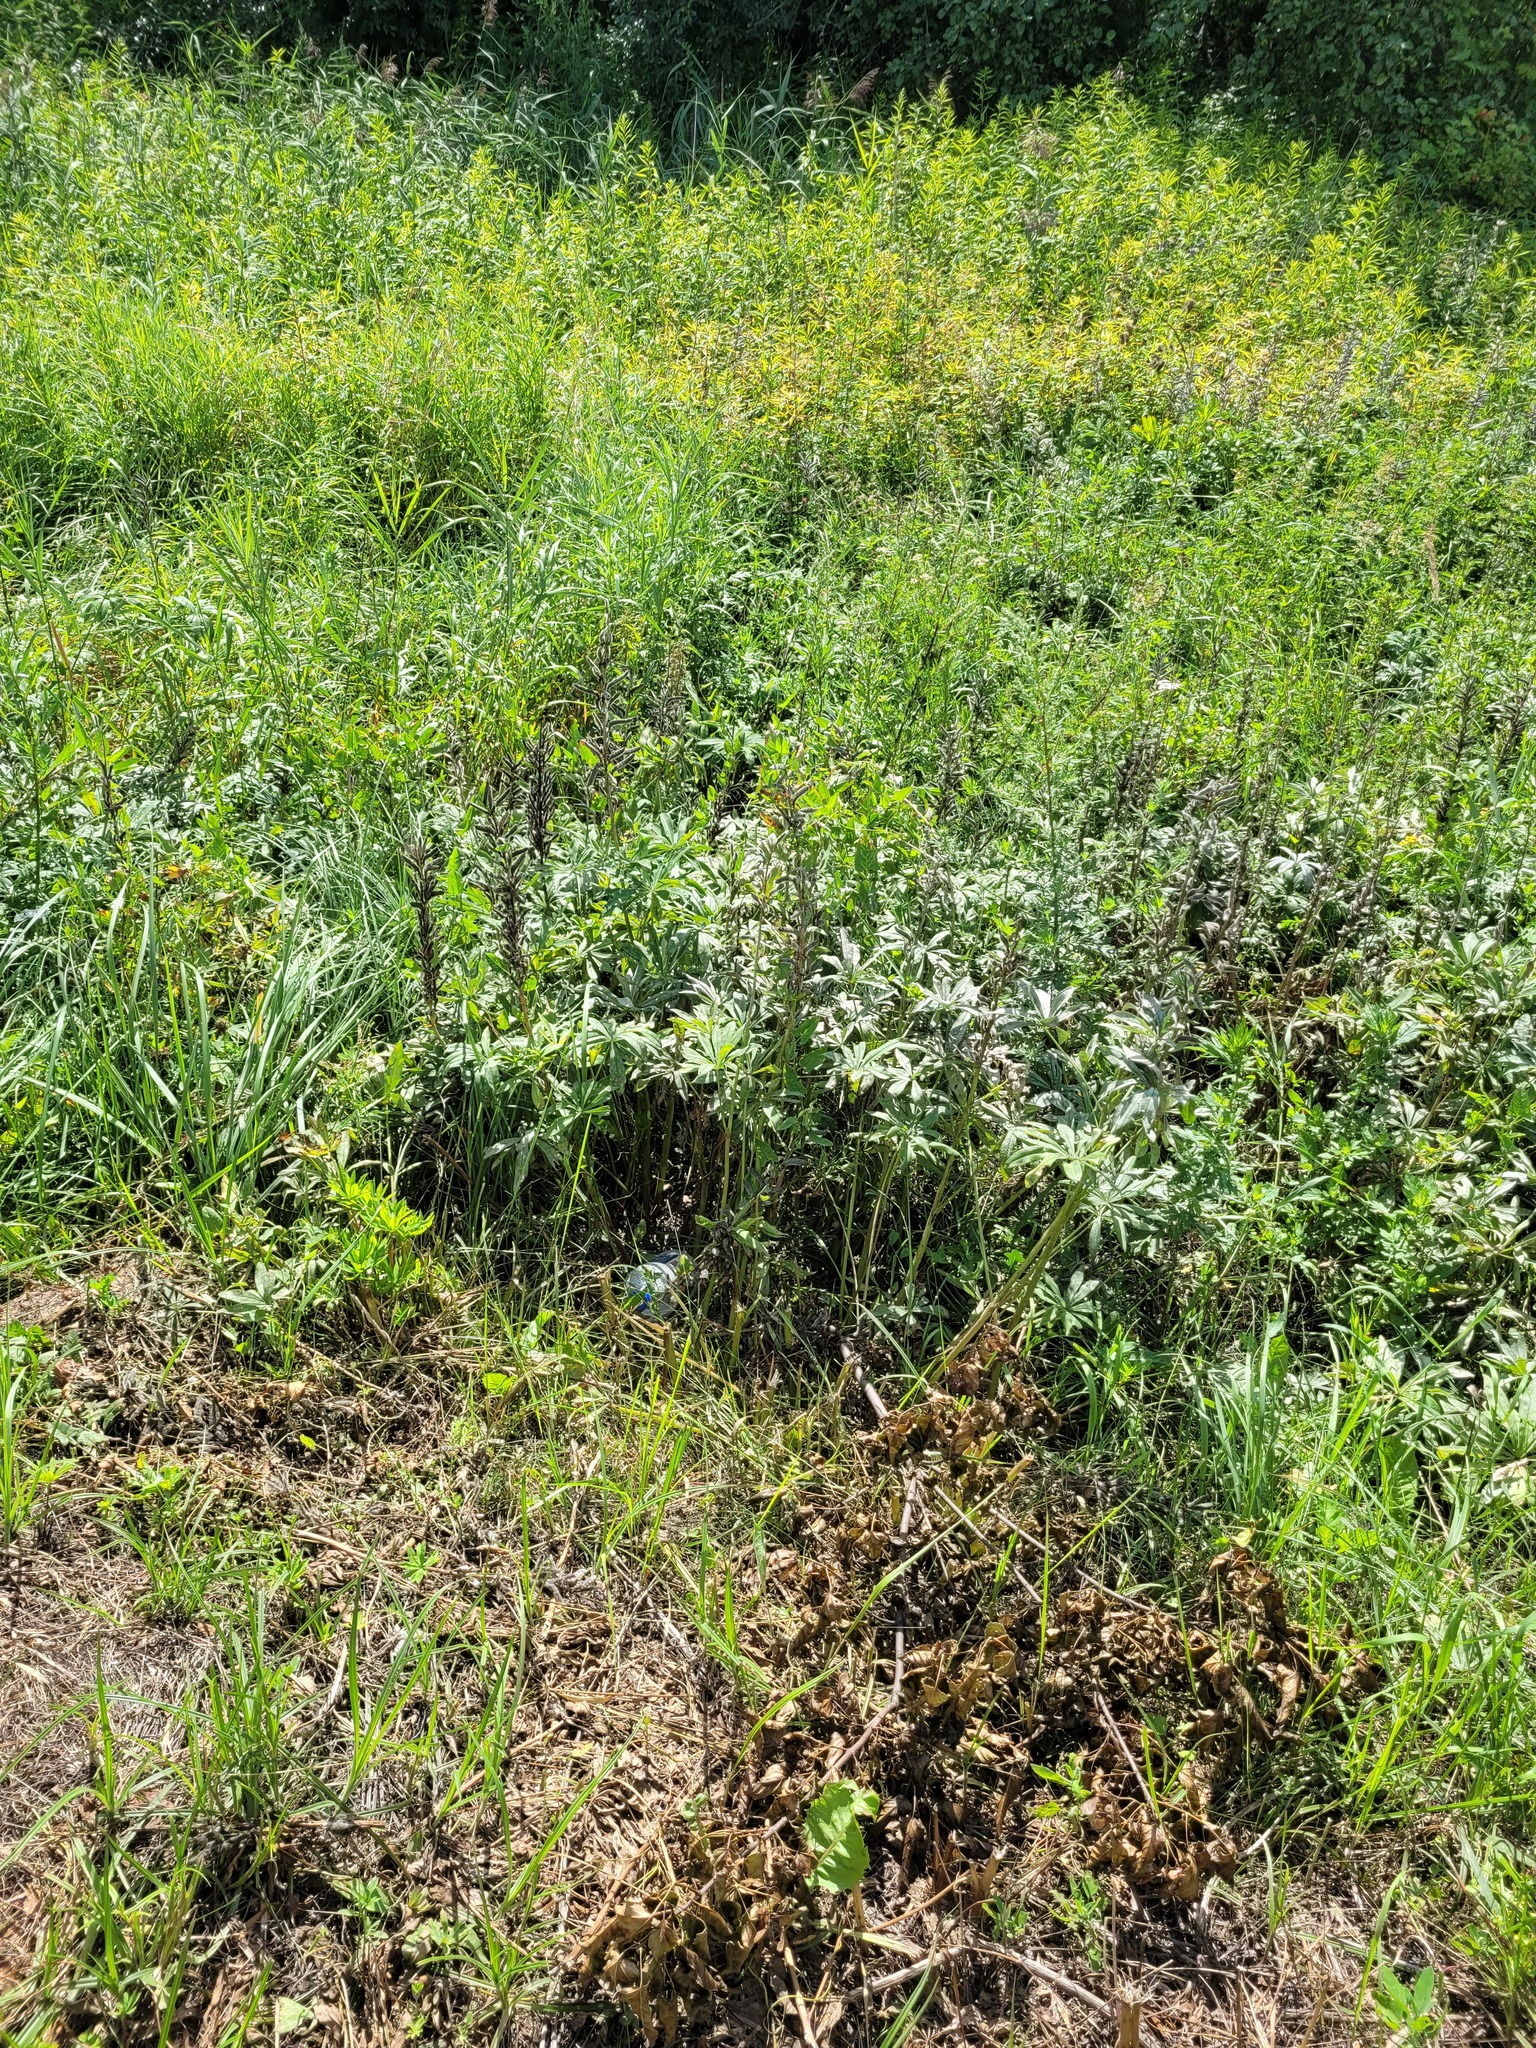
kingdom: Plantae
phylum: Tracheophyta
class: Magnoliopsida
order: Fabales
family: Fabaceae
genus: Lupinus
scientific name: Lupinus polyphyllus
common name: Garden lupin
